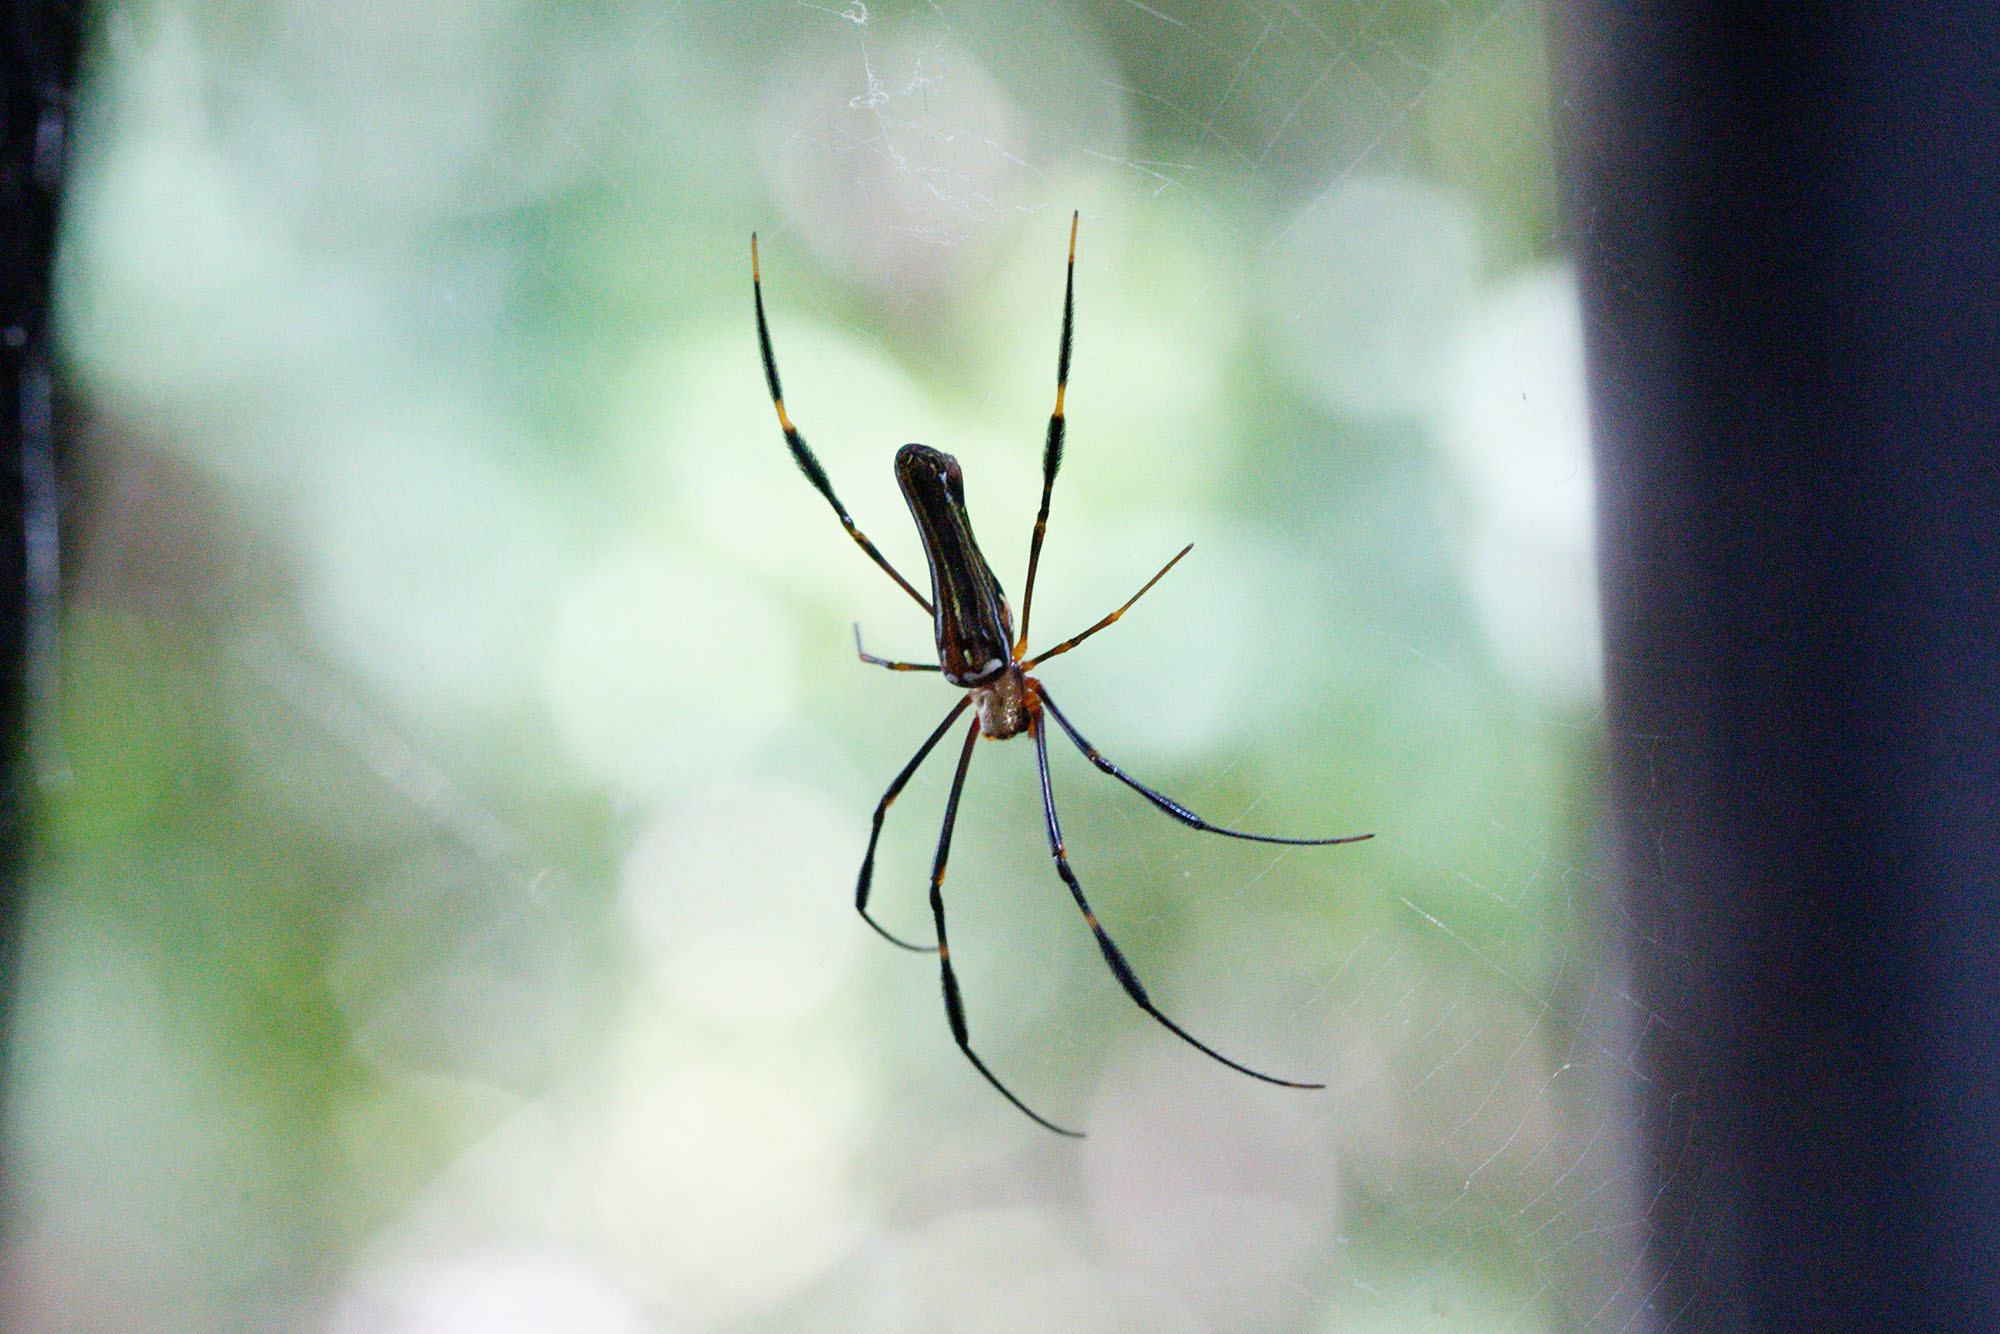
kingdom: Animalia
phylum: Arthropoda
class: Arachnida
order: Araneae
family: Araneidae
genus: Nephila
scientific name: Nephila pilipes
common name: Giant golden orb weaver
